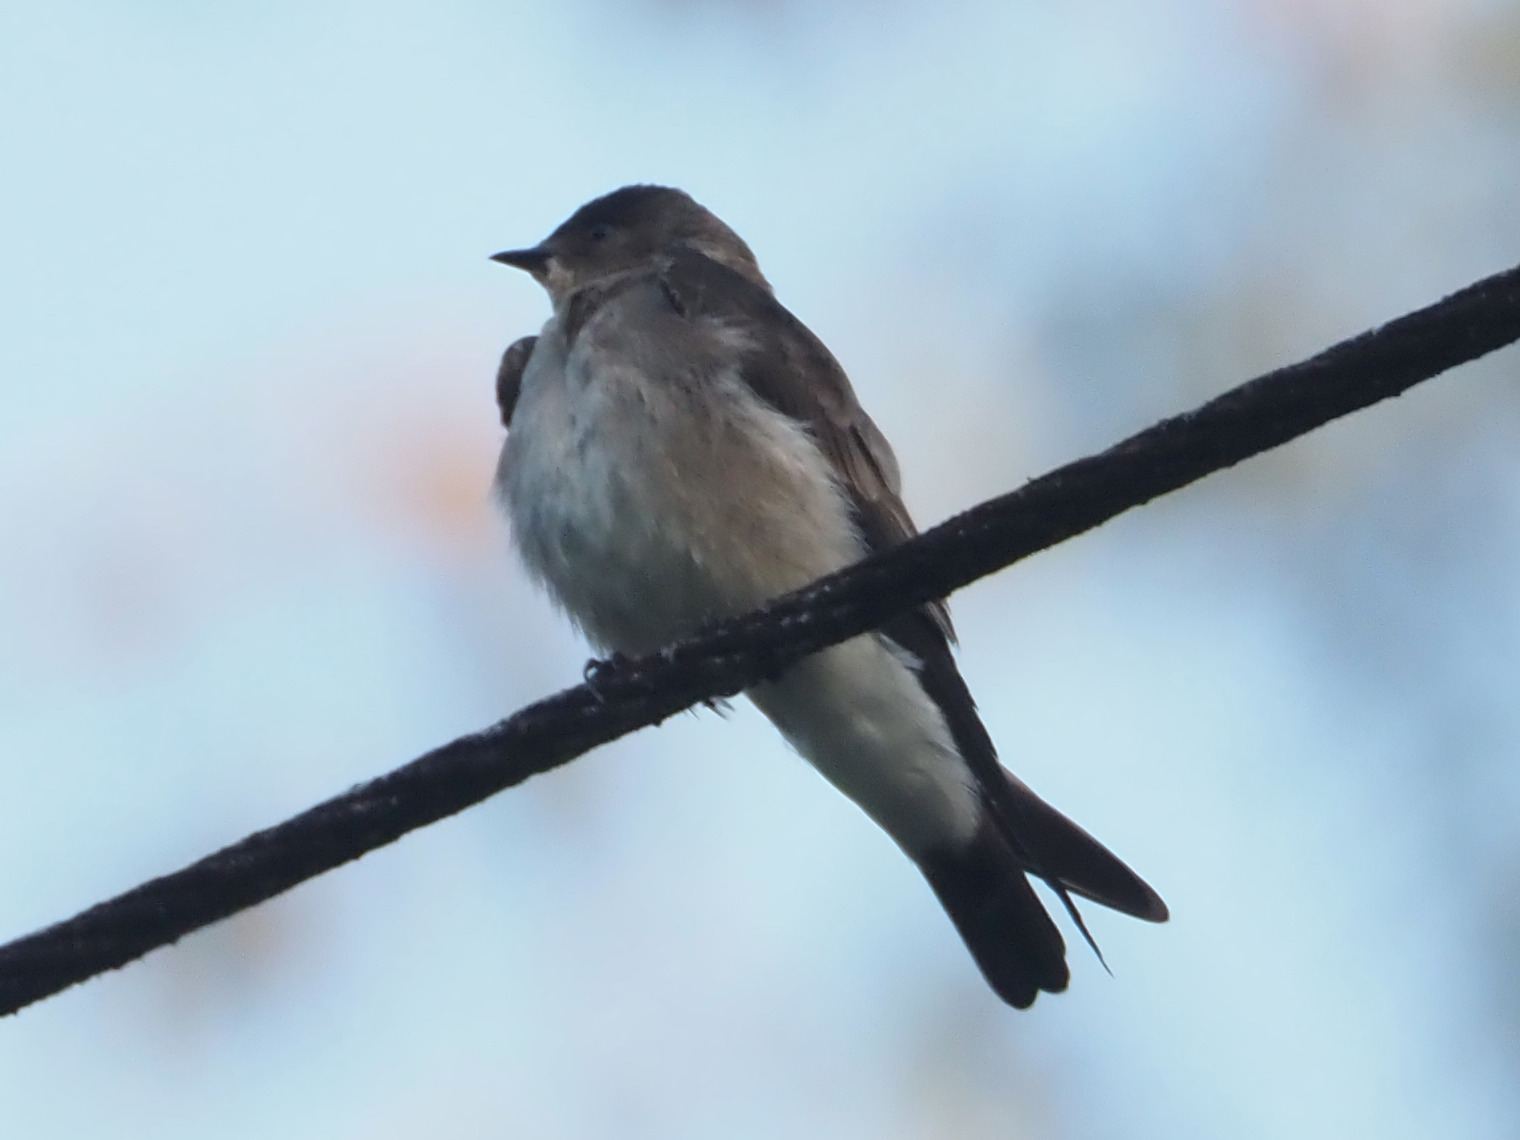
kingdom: Animalia
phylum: Chordata
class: Aves
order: Passeriformes
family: Hirundinidae
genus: Stelgidopteryx
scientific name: Stelgidopteryx serripennis
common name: Northern rough-winged swallow
